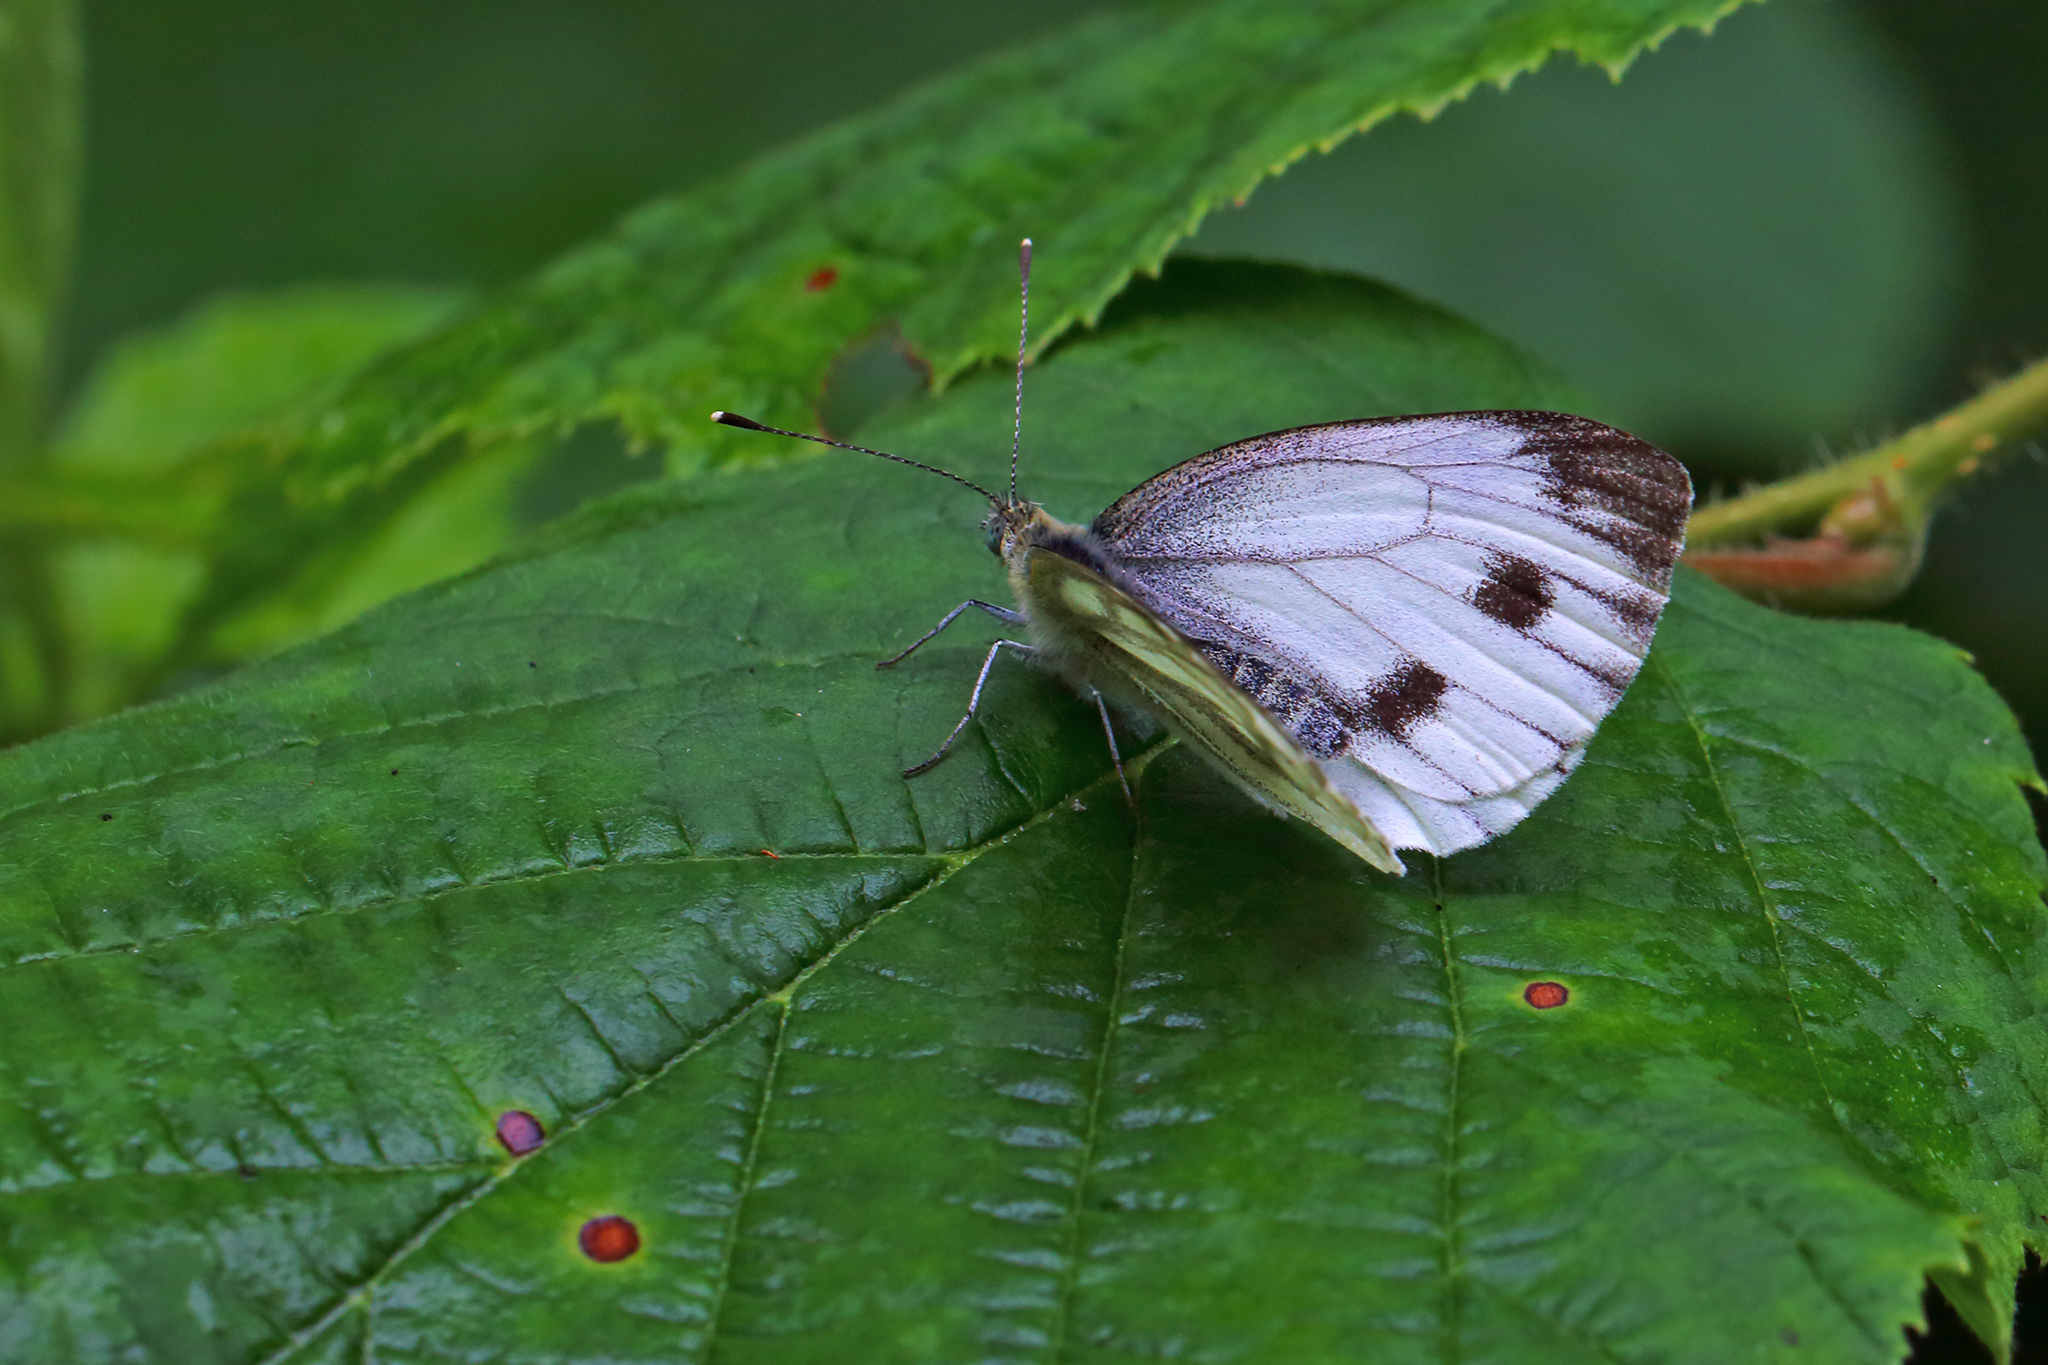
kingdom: Animalia
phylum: Arthropoda
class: Insecta
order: Lepidoptera
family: Pieridae
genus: Pieris
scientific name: Pieris napi
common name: Green-veined white
